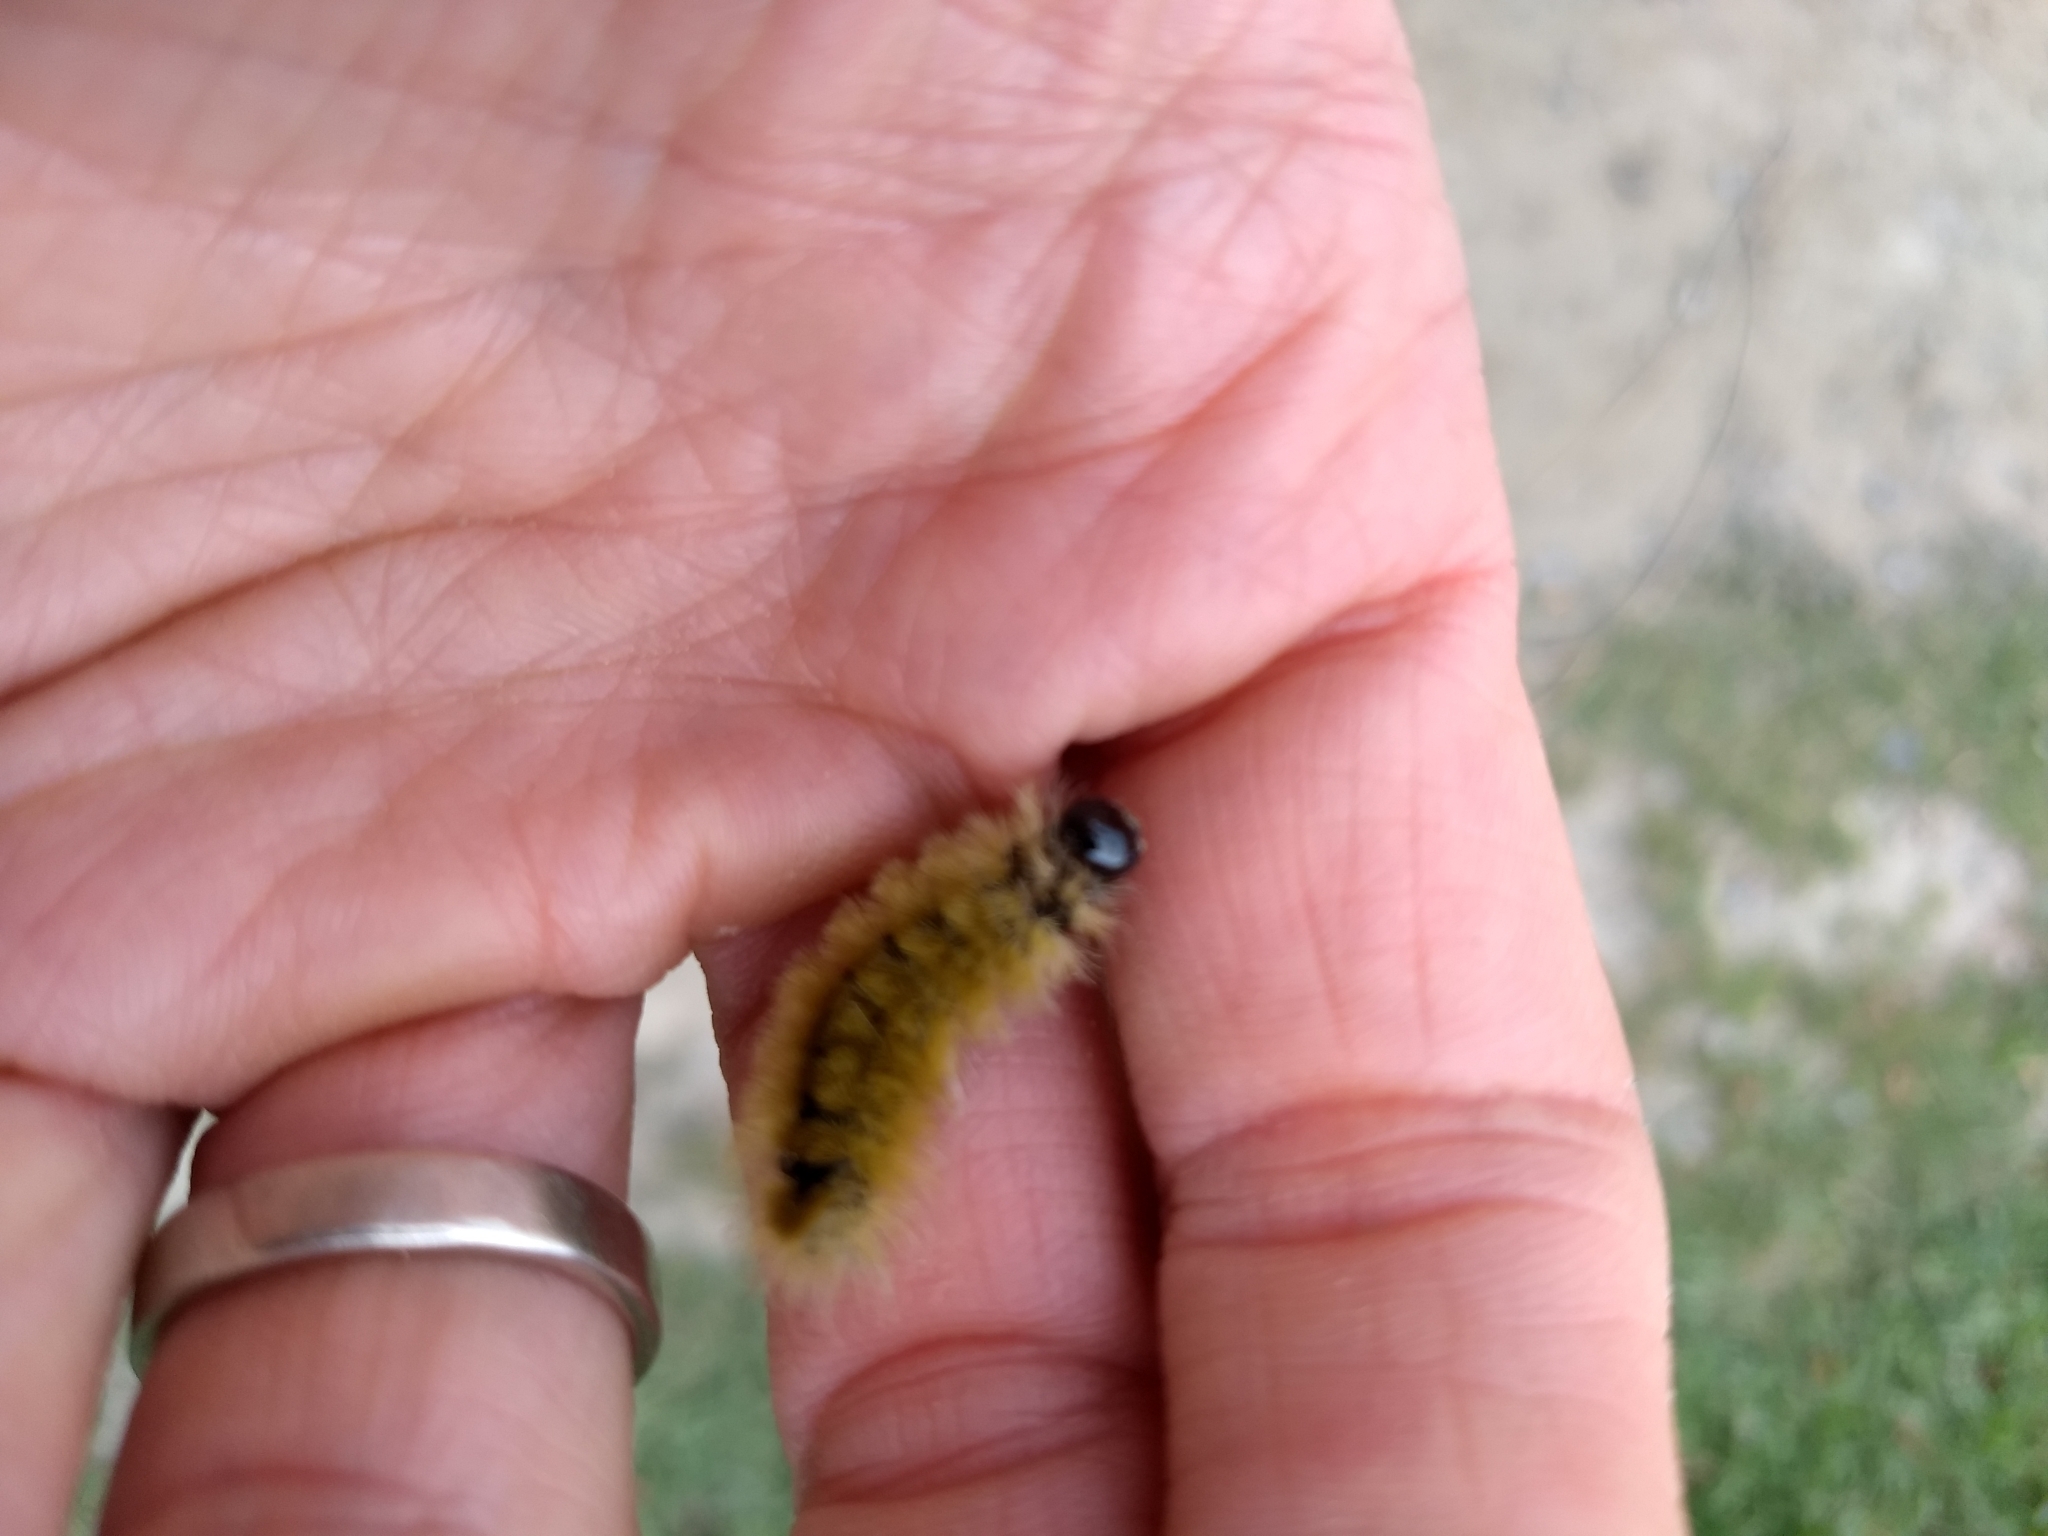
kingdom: Animalia
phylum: Arthropoda
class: Insecta
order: Lepidoptera
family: Erebidae
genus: Halysidota
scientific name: Halysidota tessellaris
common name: Banded tussock moth
